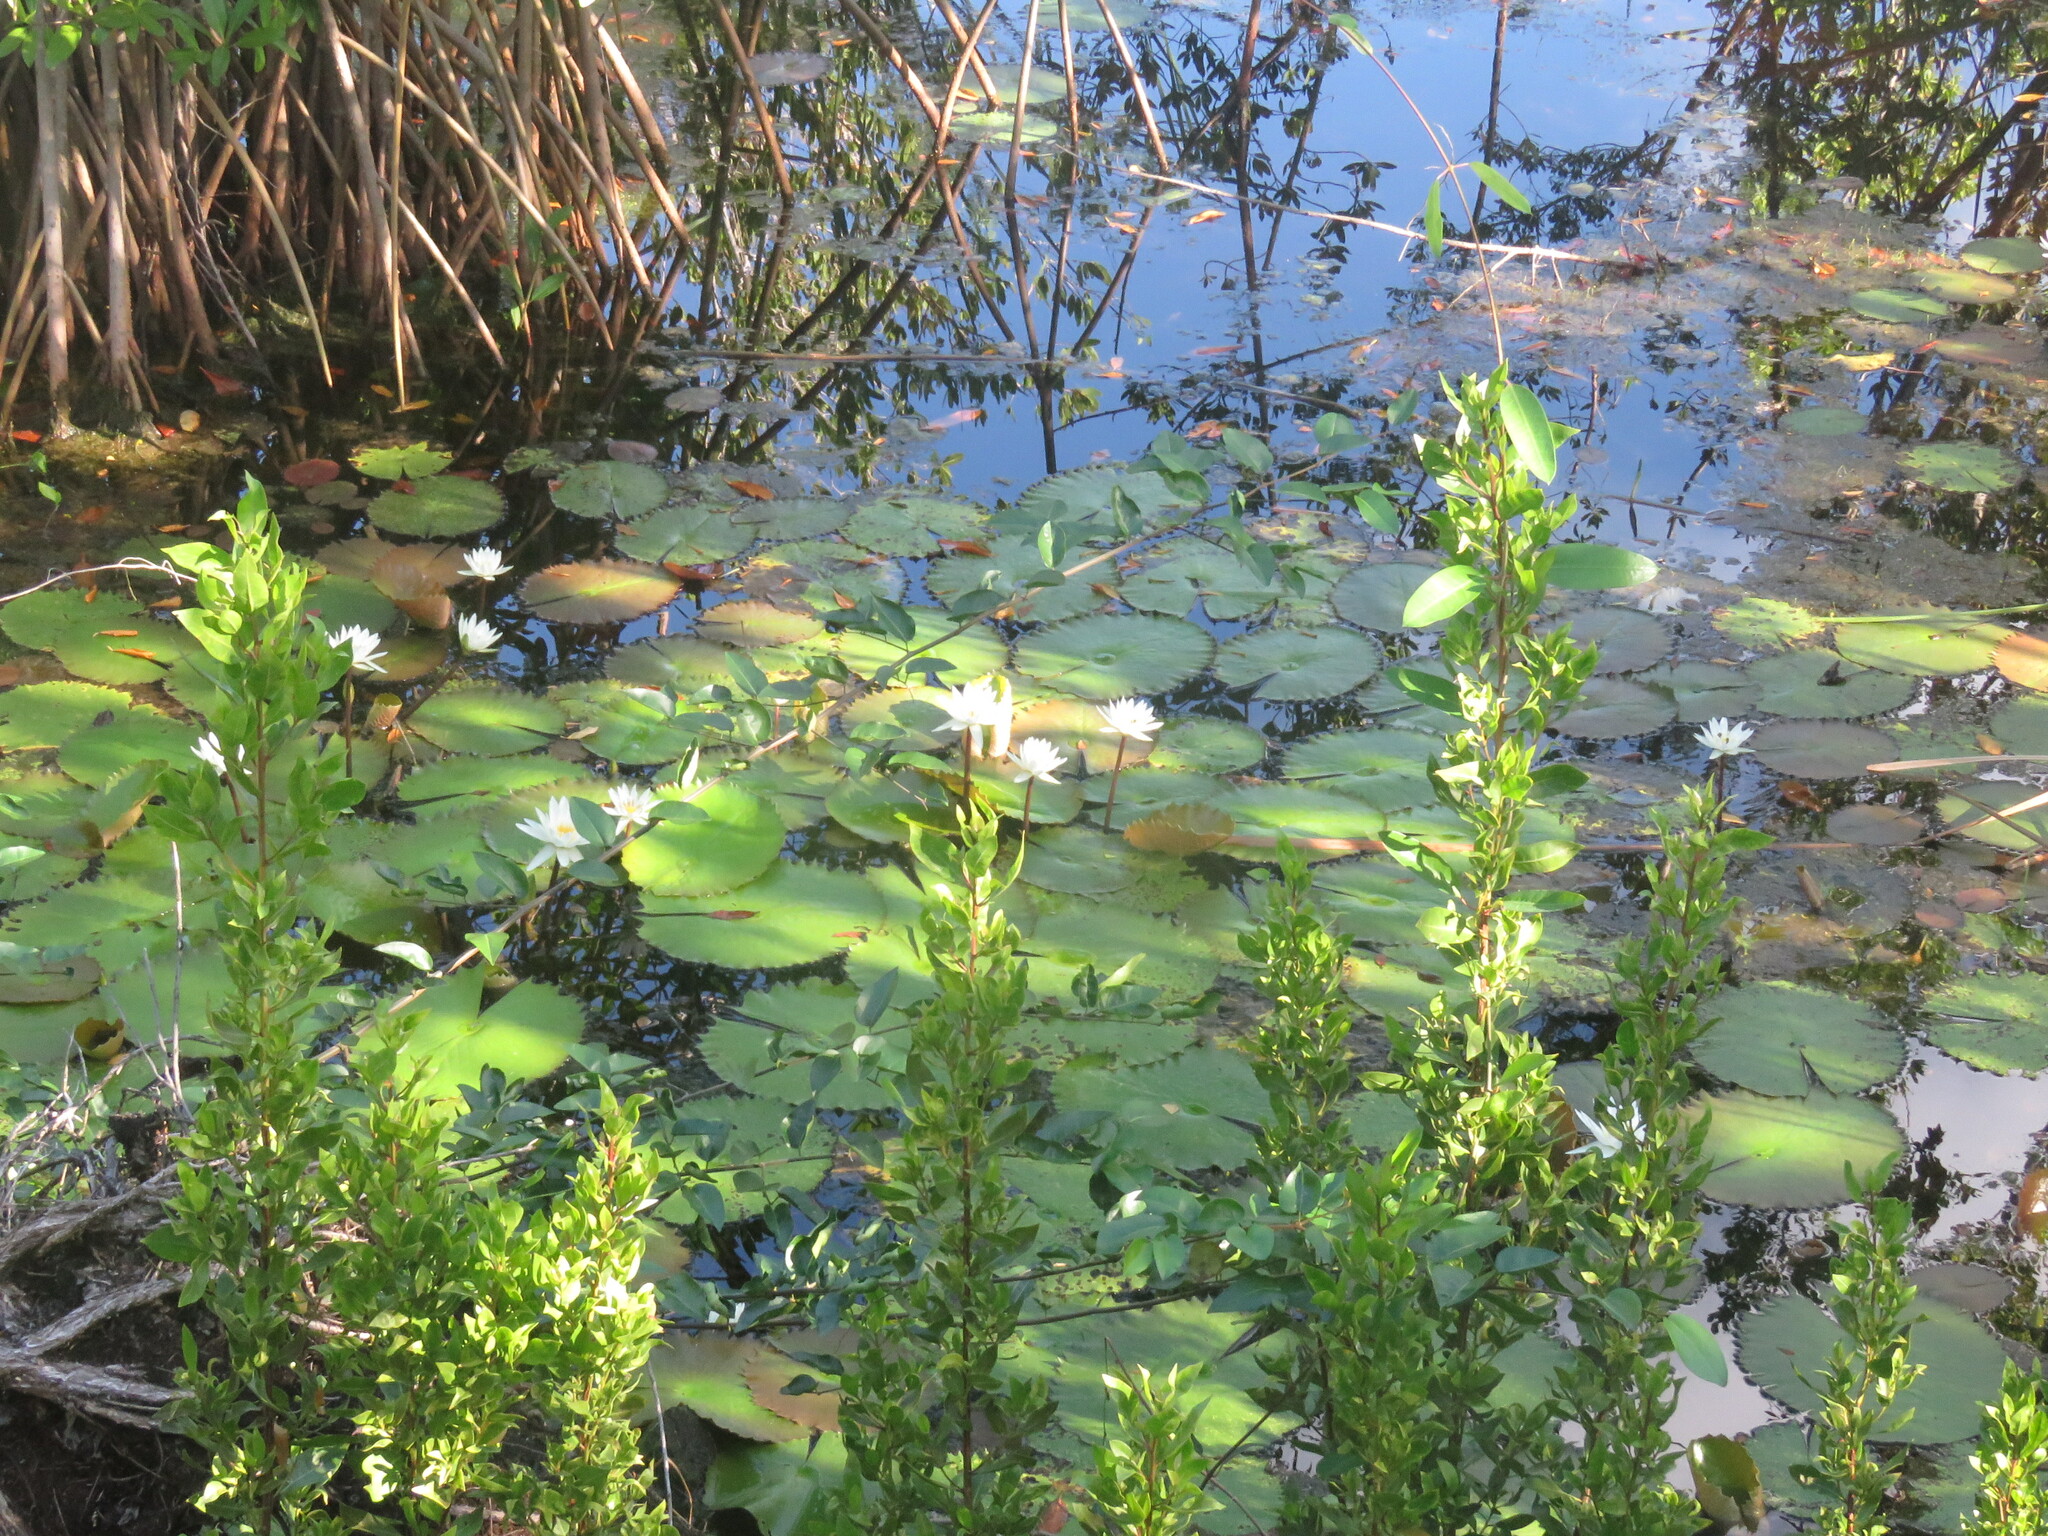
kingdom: Plantae
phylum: Tracheophyta
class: Magnoliopsida
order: Nymphaeales
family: Nymphaeaceae
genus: Nymphaea
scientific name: Nymphaea ampla
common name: Dotleaf waterlily
